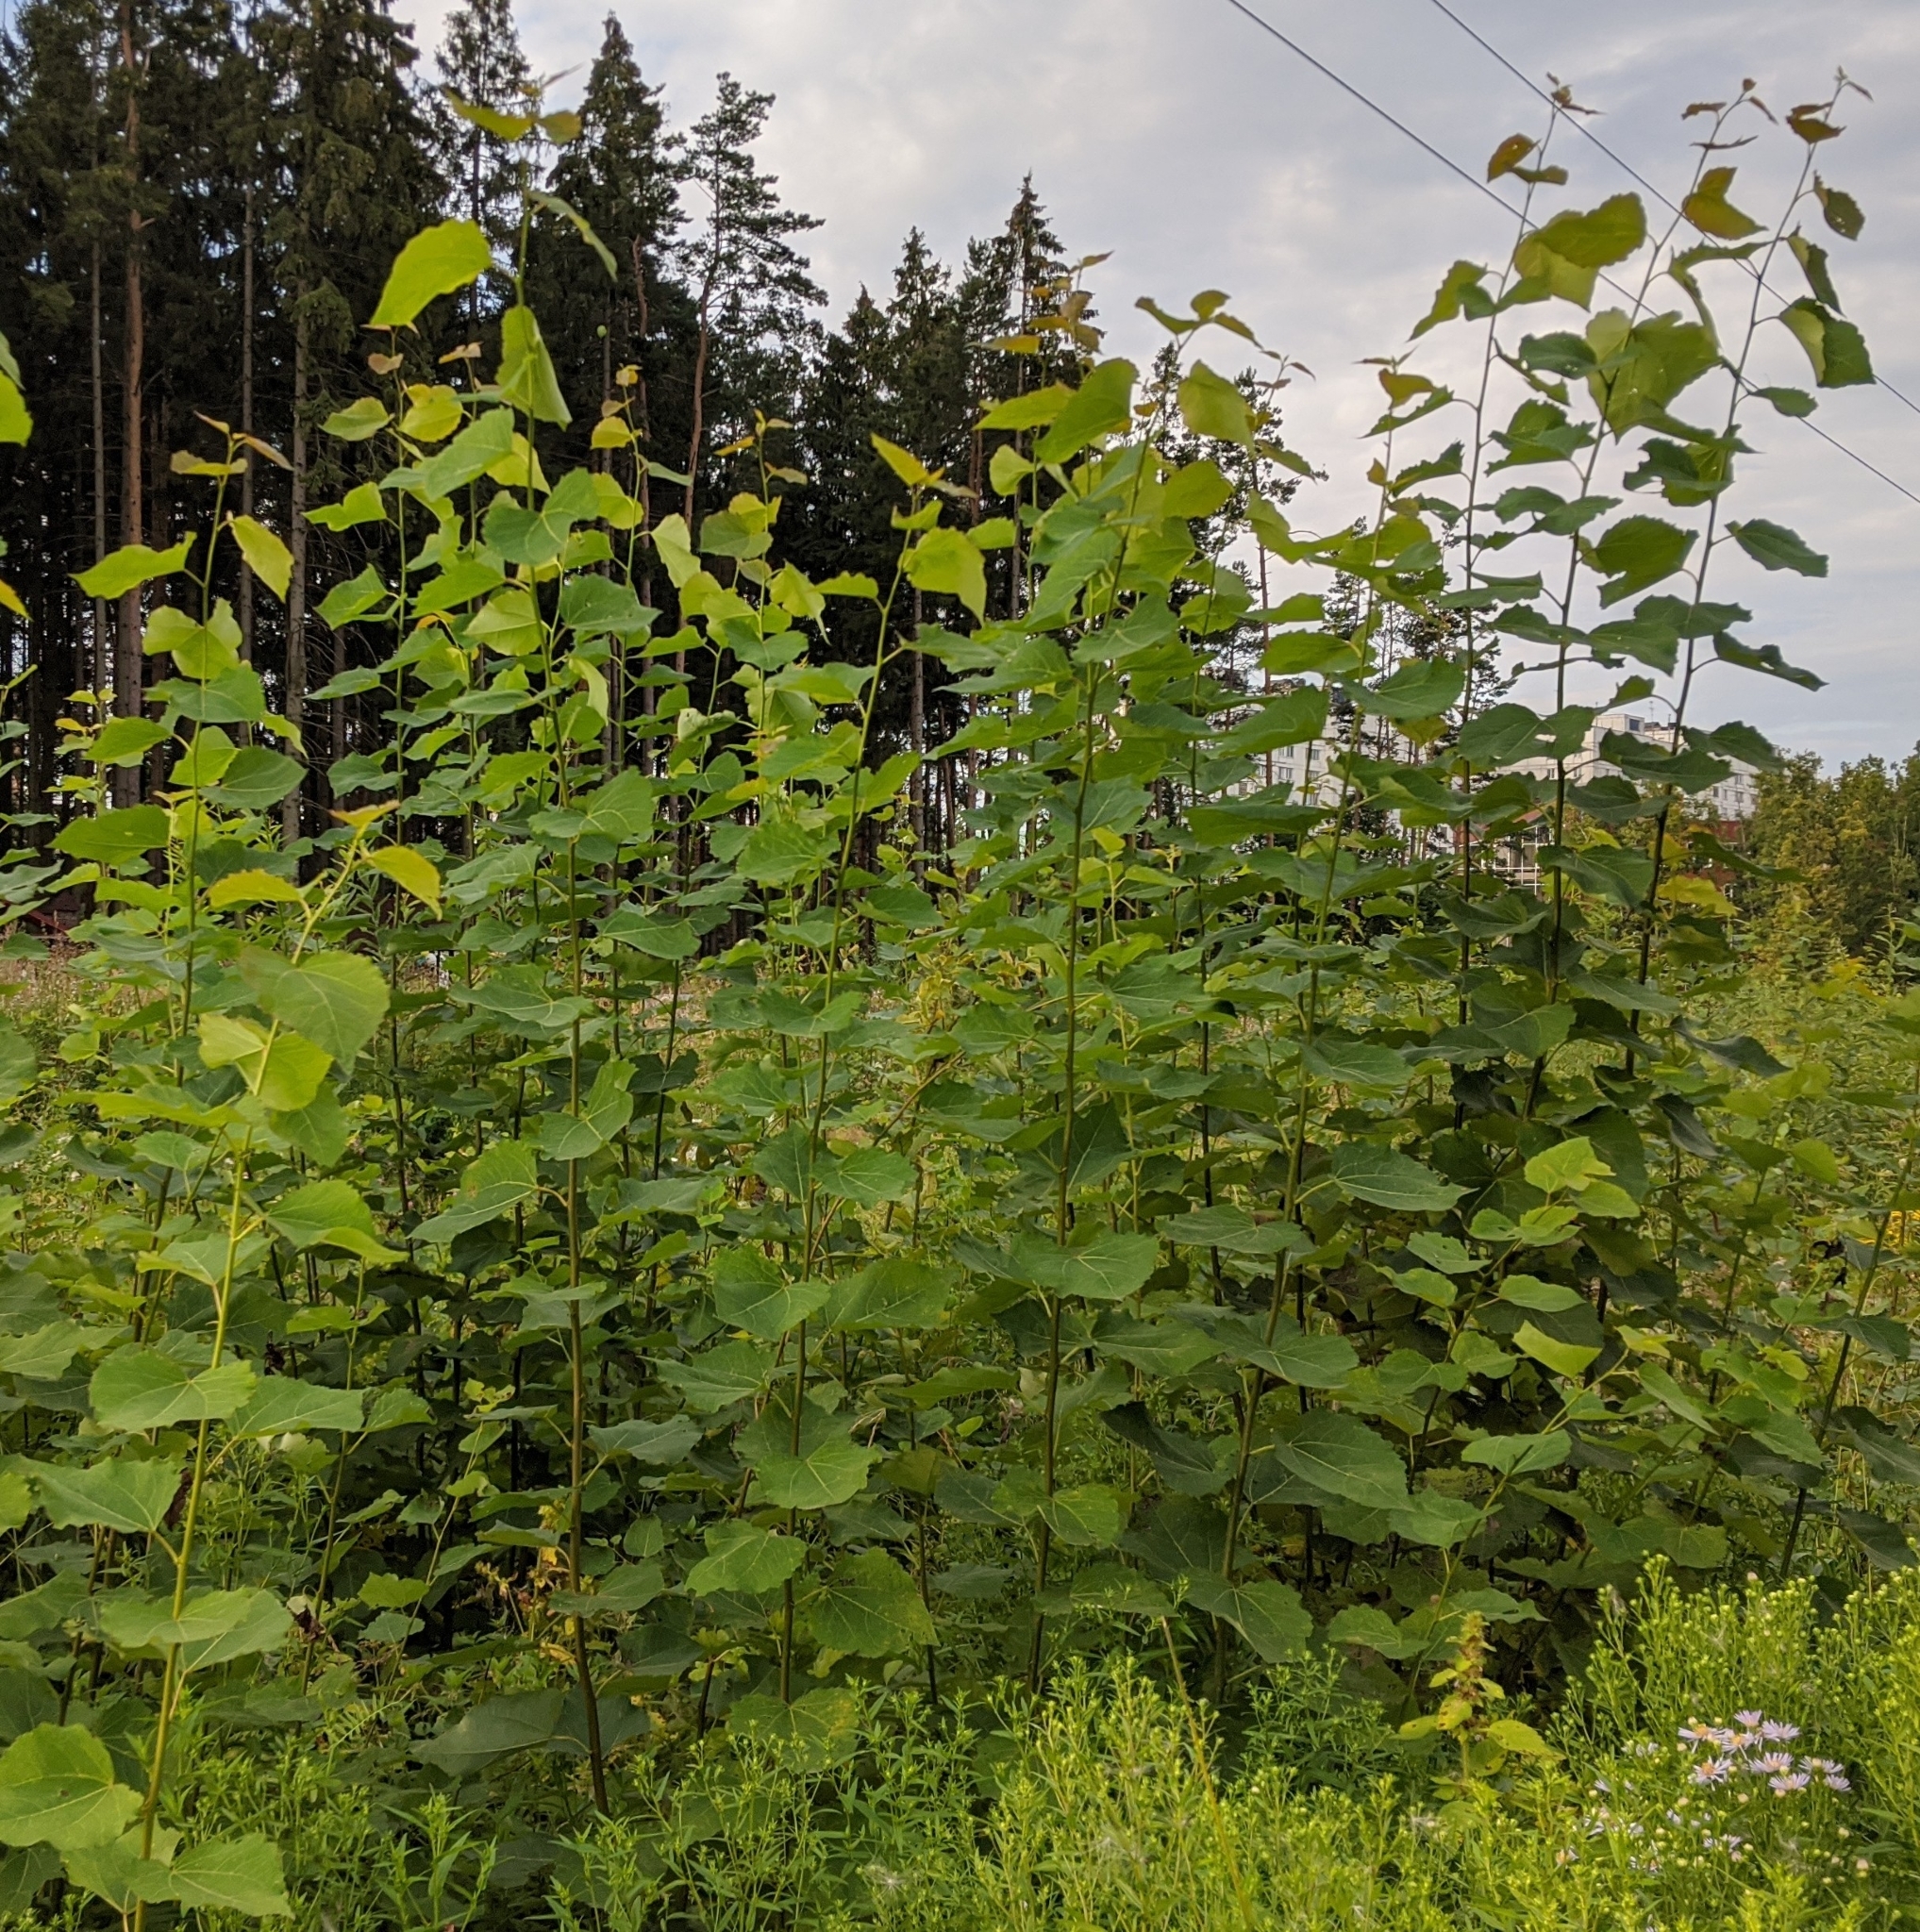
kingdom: Plantae
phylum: Tracheophyta
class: Magnoliopsida
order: Malpighiales
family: Salicaceae
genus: Populus
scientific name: Populus tremula
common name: European aspen
